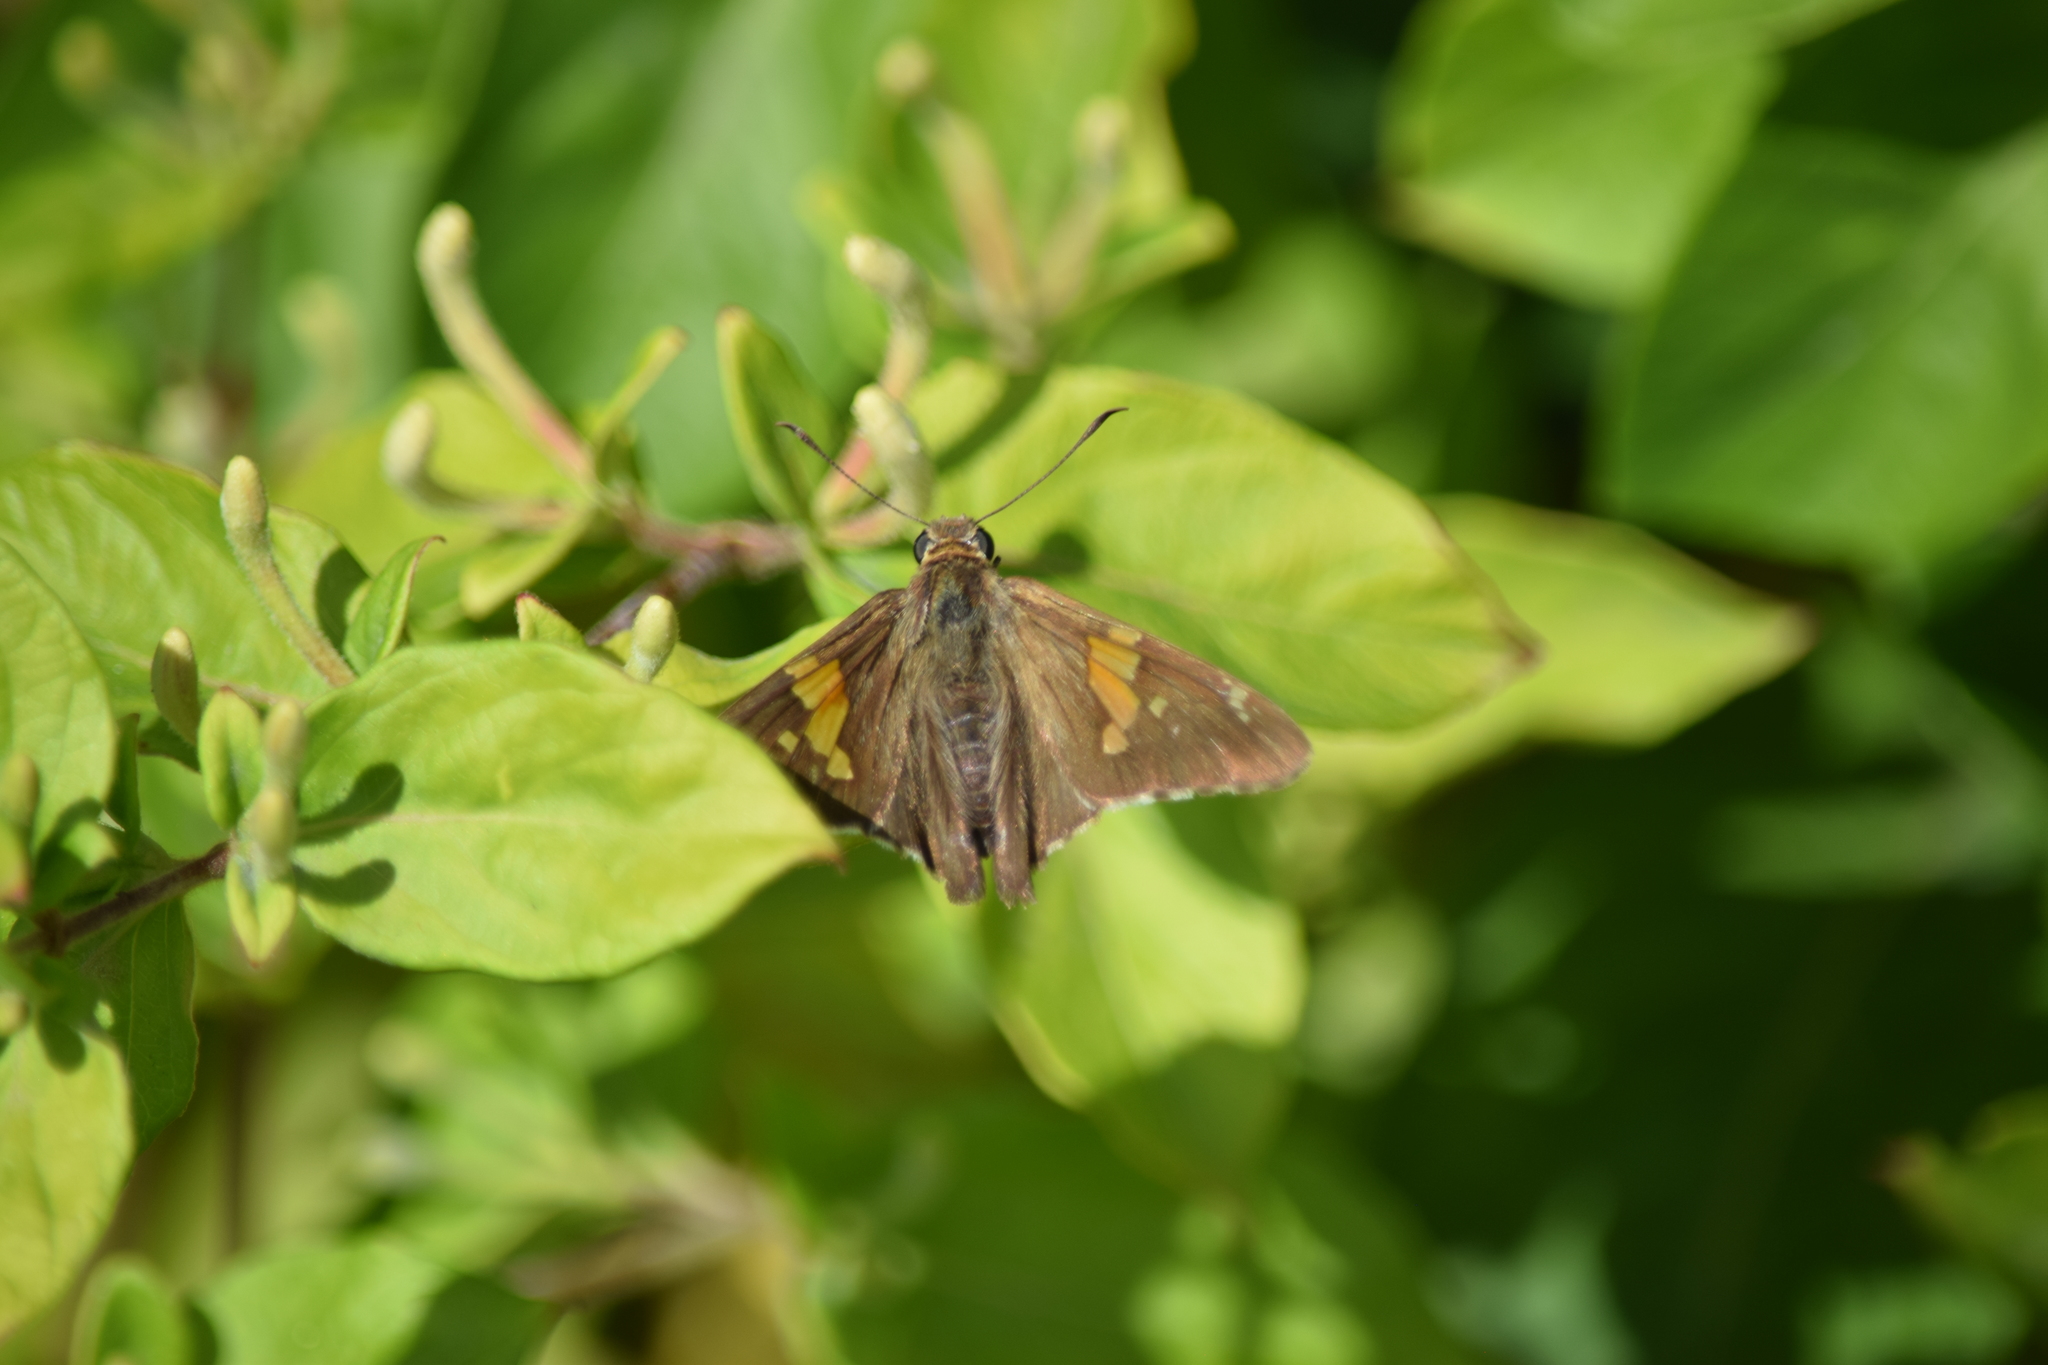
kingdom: Animalia
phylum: Arthropoda
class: Insecta
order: Lepidoptera
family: Hesperiidae
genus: Epargyreus
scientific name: Epargyreus clarus
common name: Silver-spotted skipper
